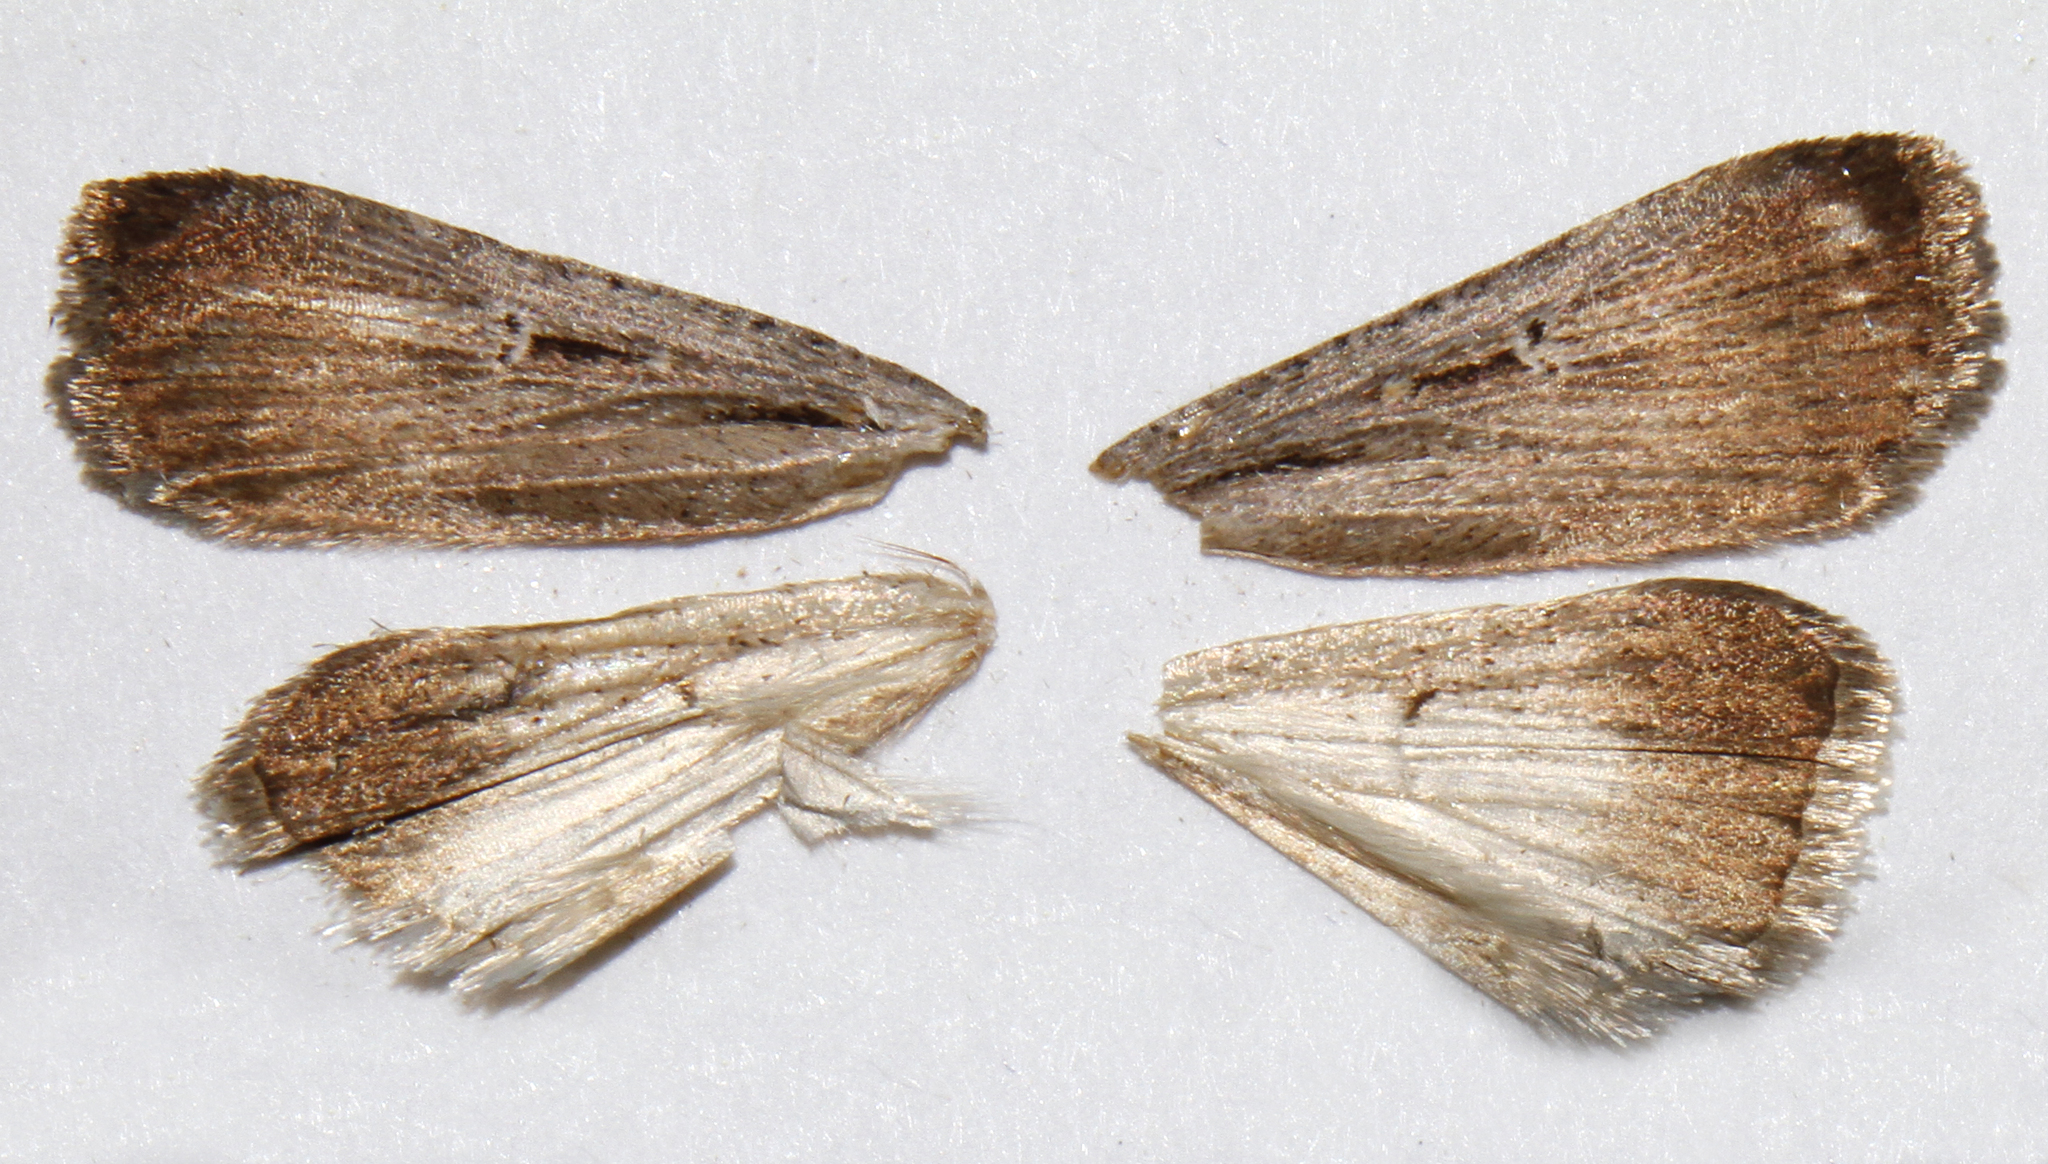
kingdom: Animalia
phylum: Arthropoda
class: Insecta
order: Lepidoptera
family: Noctuidae
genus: Tathorhynchus
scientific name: Tathorhynchus exsiccata
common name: Levant blackneck moth
